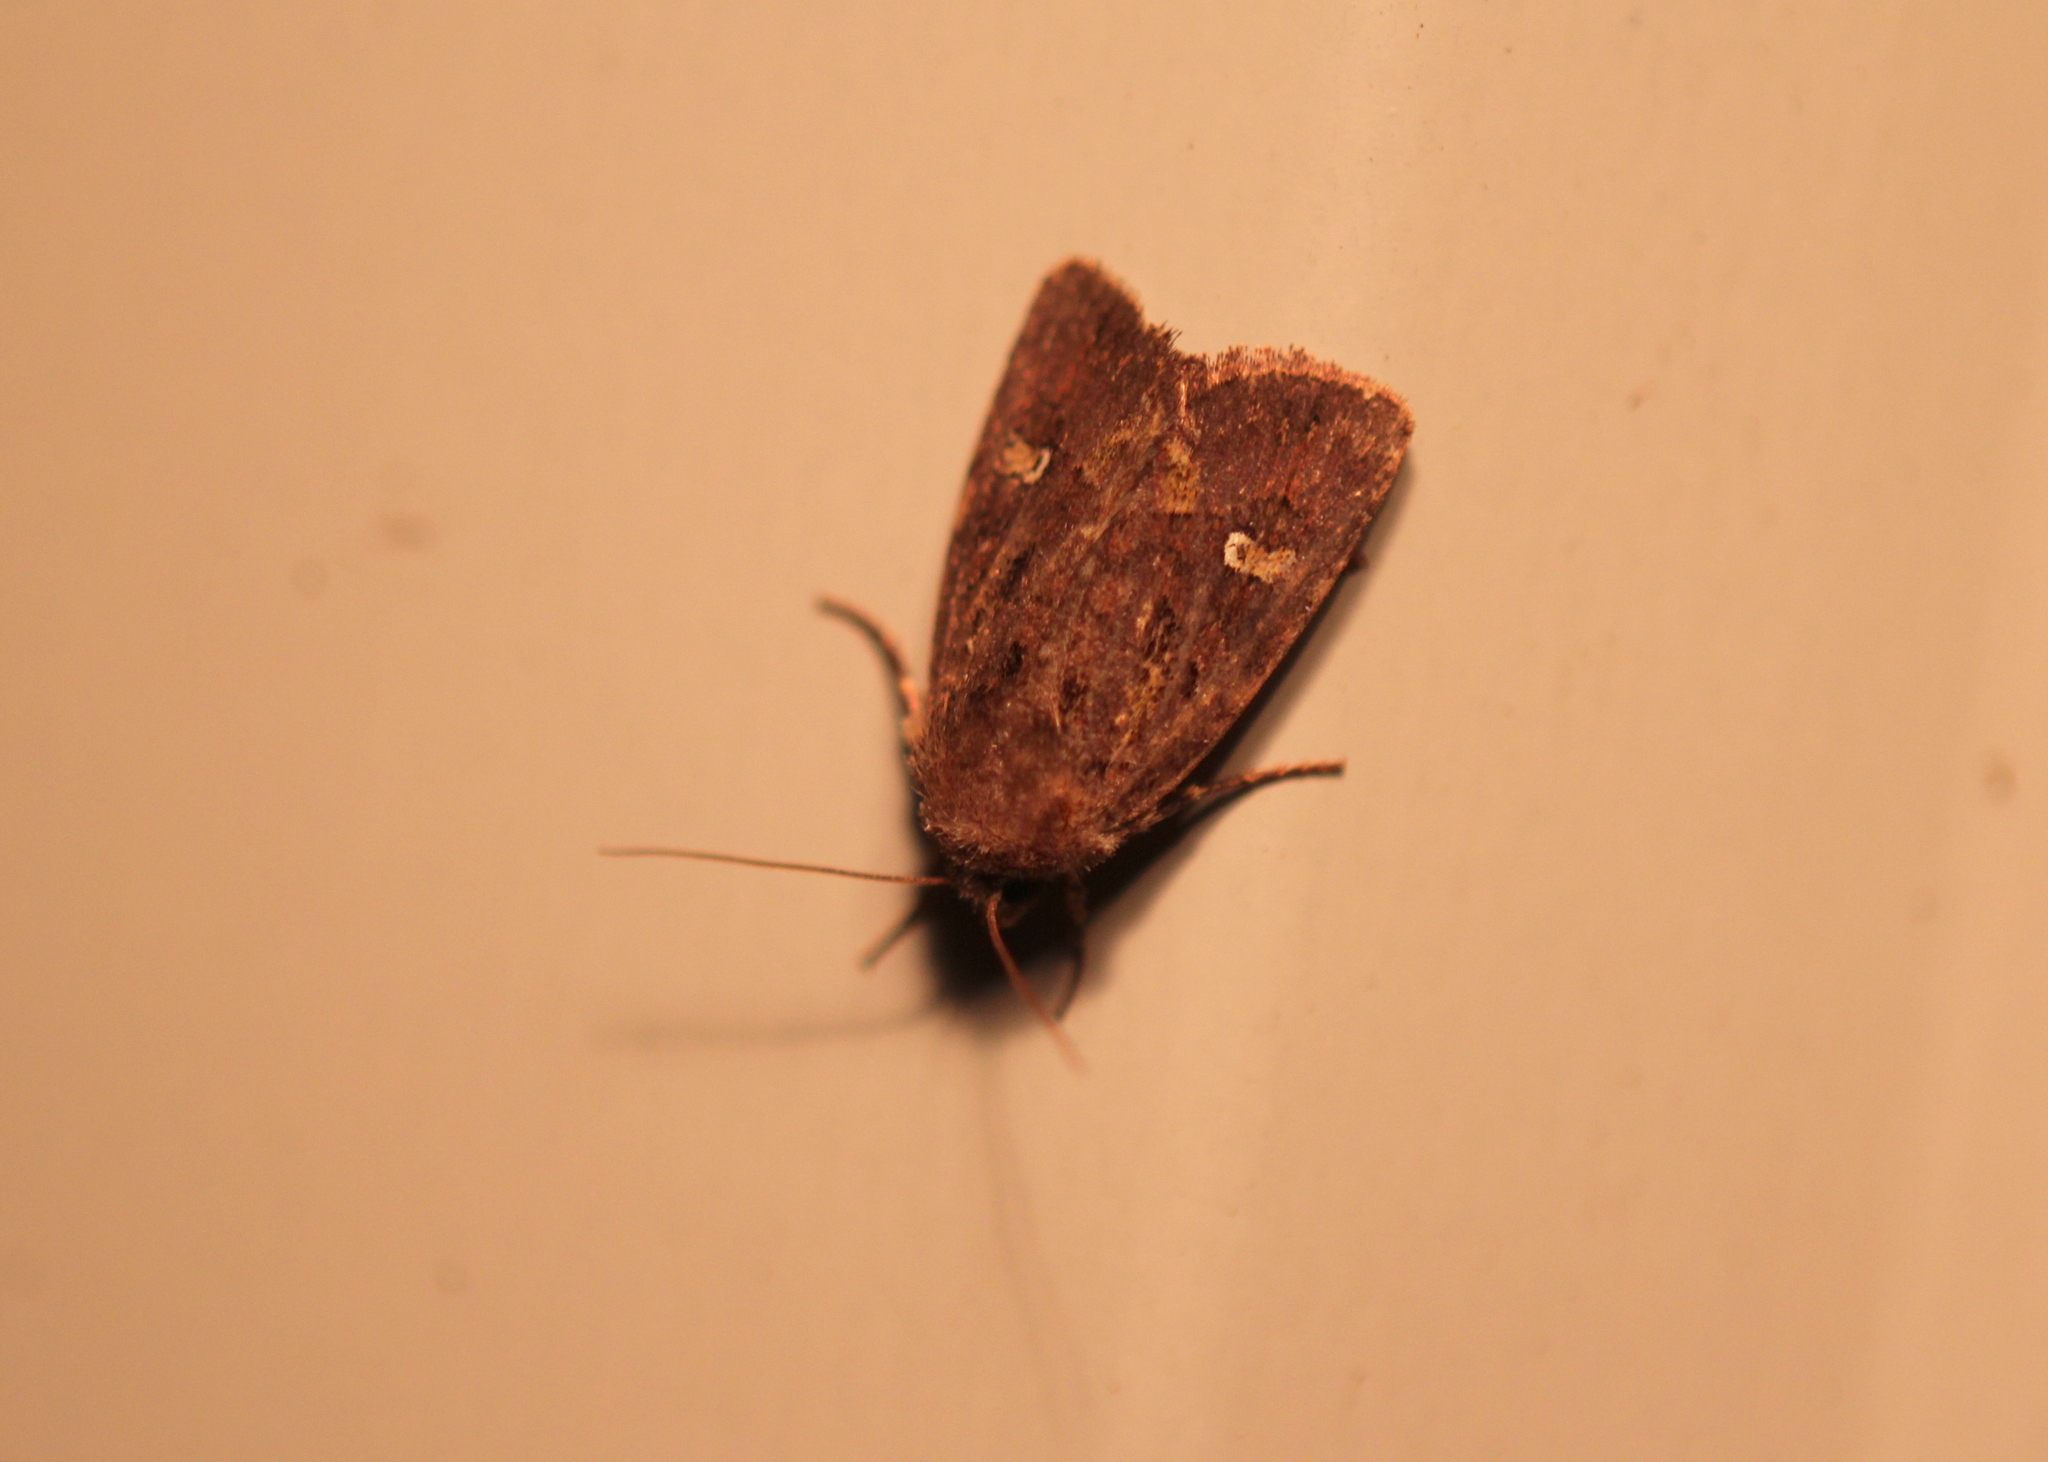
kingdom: Animalia
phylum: Arthropoda
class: Insecta
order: Lepidoptera
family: Noctuidae
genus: Lacinipolia
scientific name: Lacinipolia renigera
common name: Kidney-spotted minor
